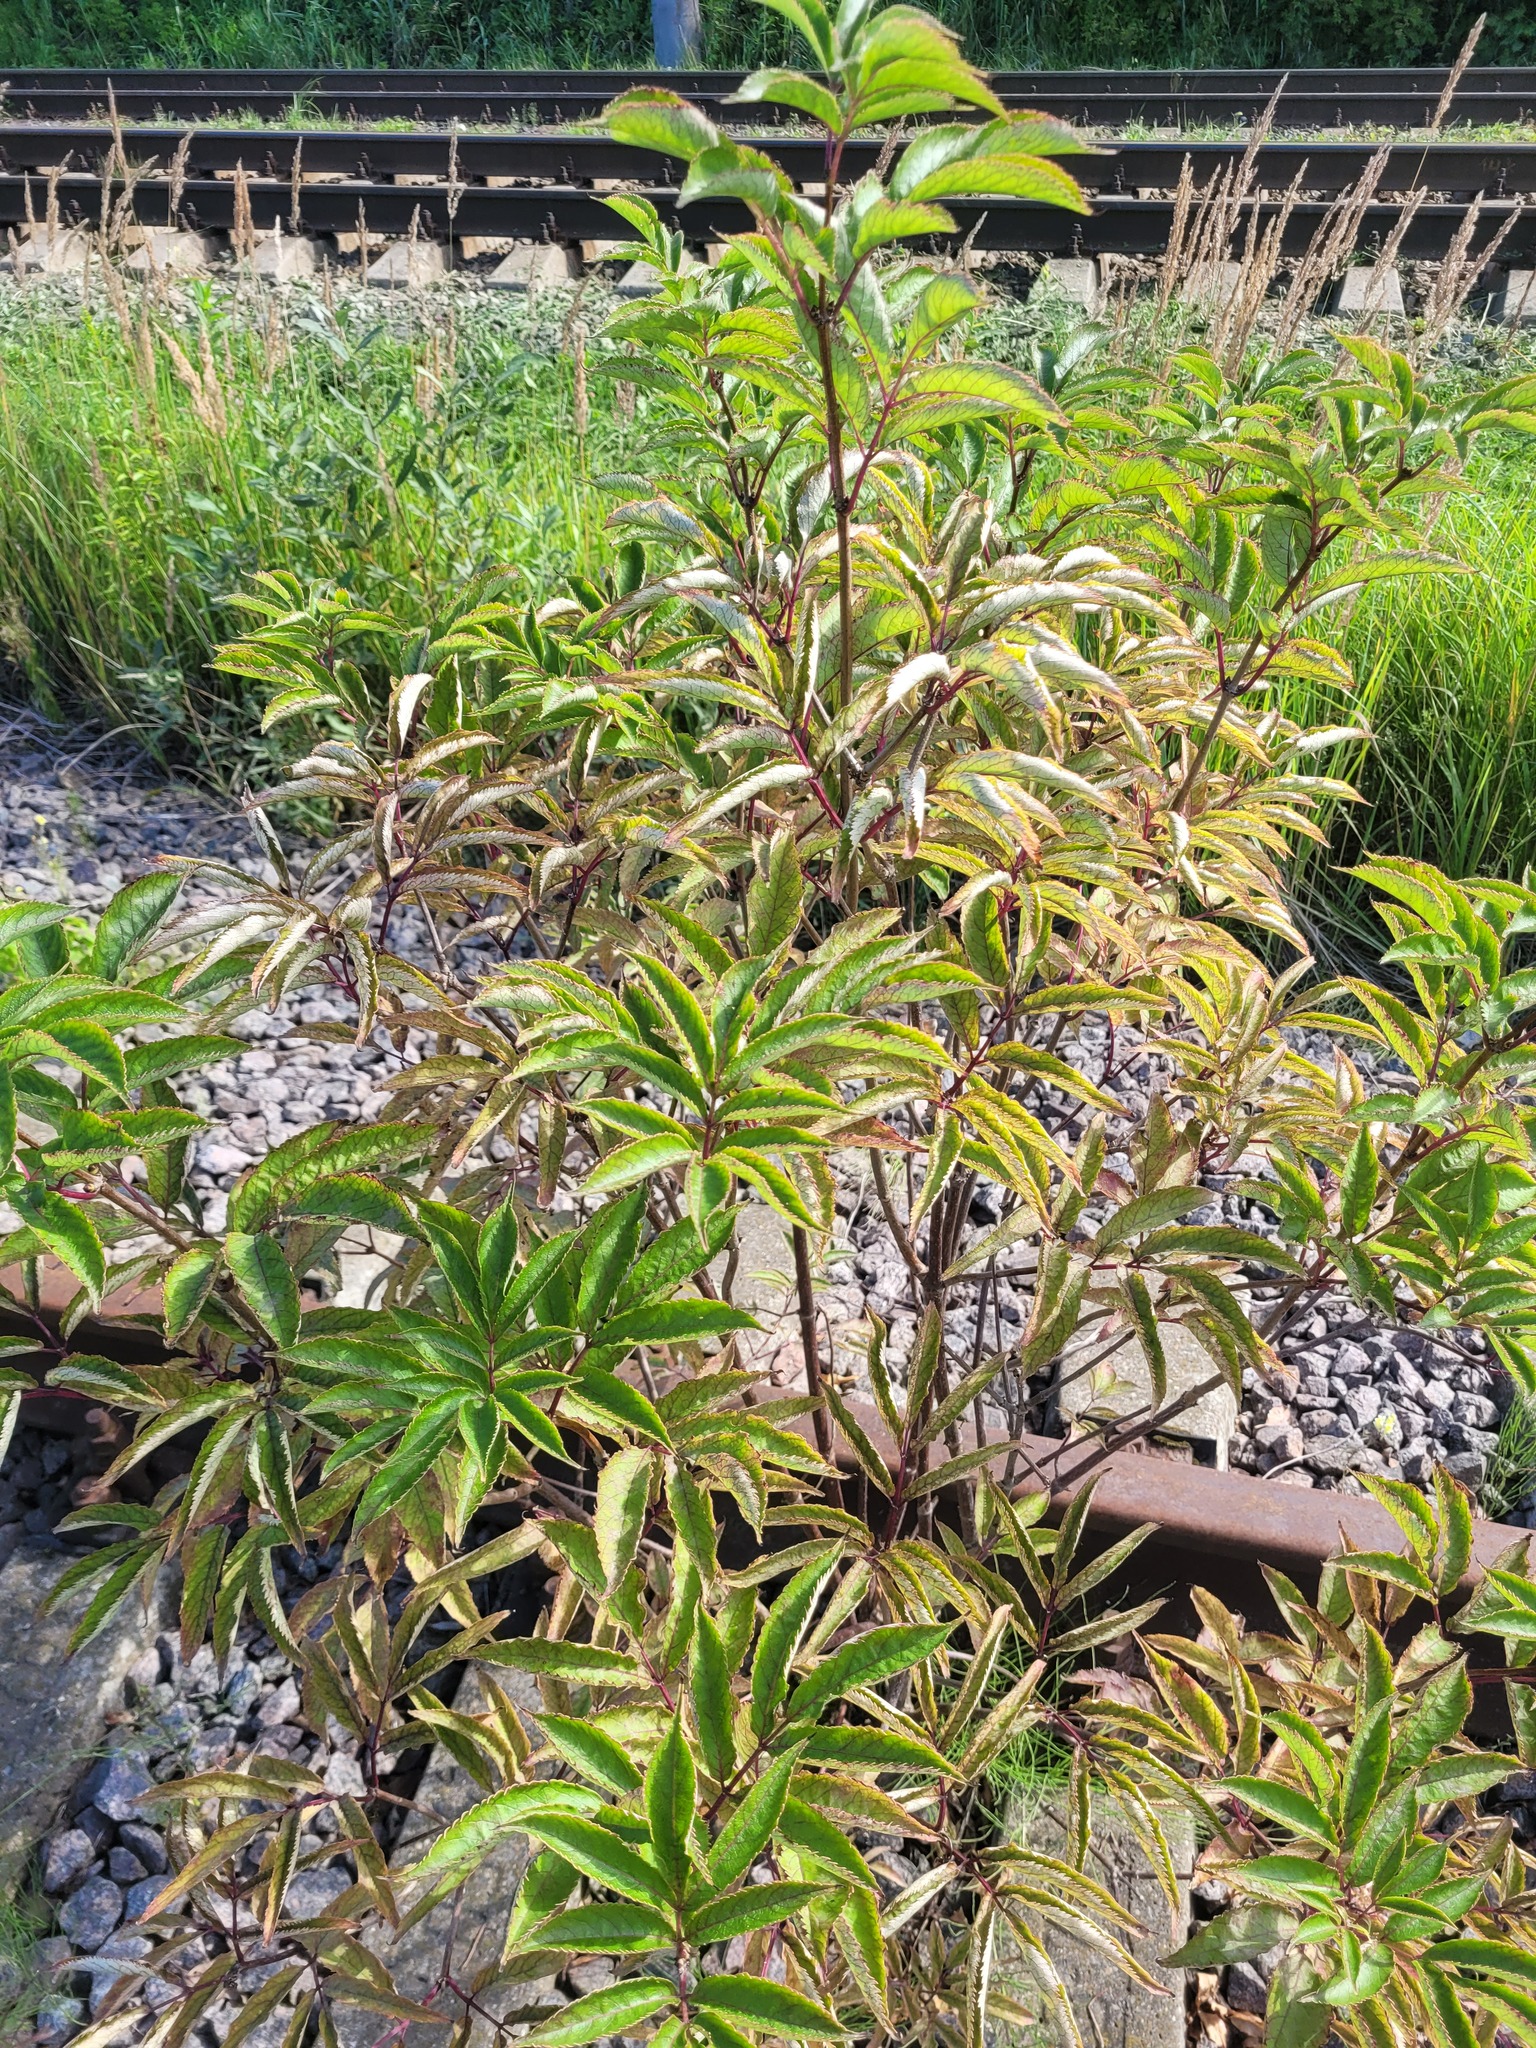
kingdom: Plantae
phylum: Tracheophyta
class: Magnoliopsida
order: Dipsacales
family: Viburnaceae
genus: Sambucus
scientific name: Sambucus racemosa
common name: Red-berried elder
